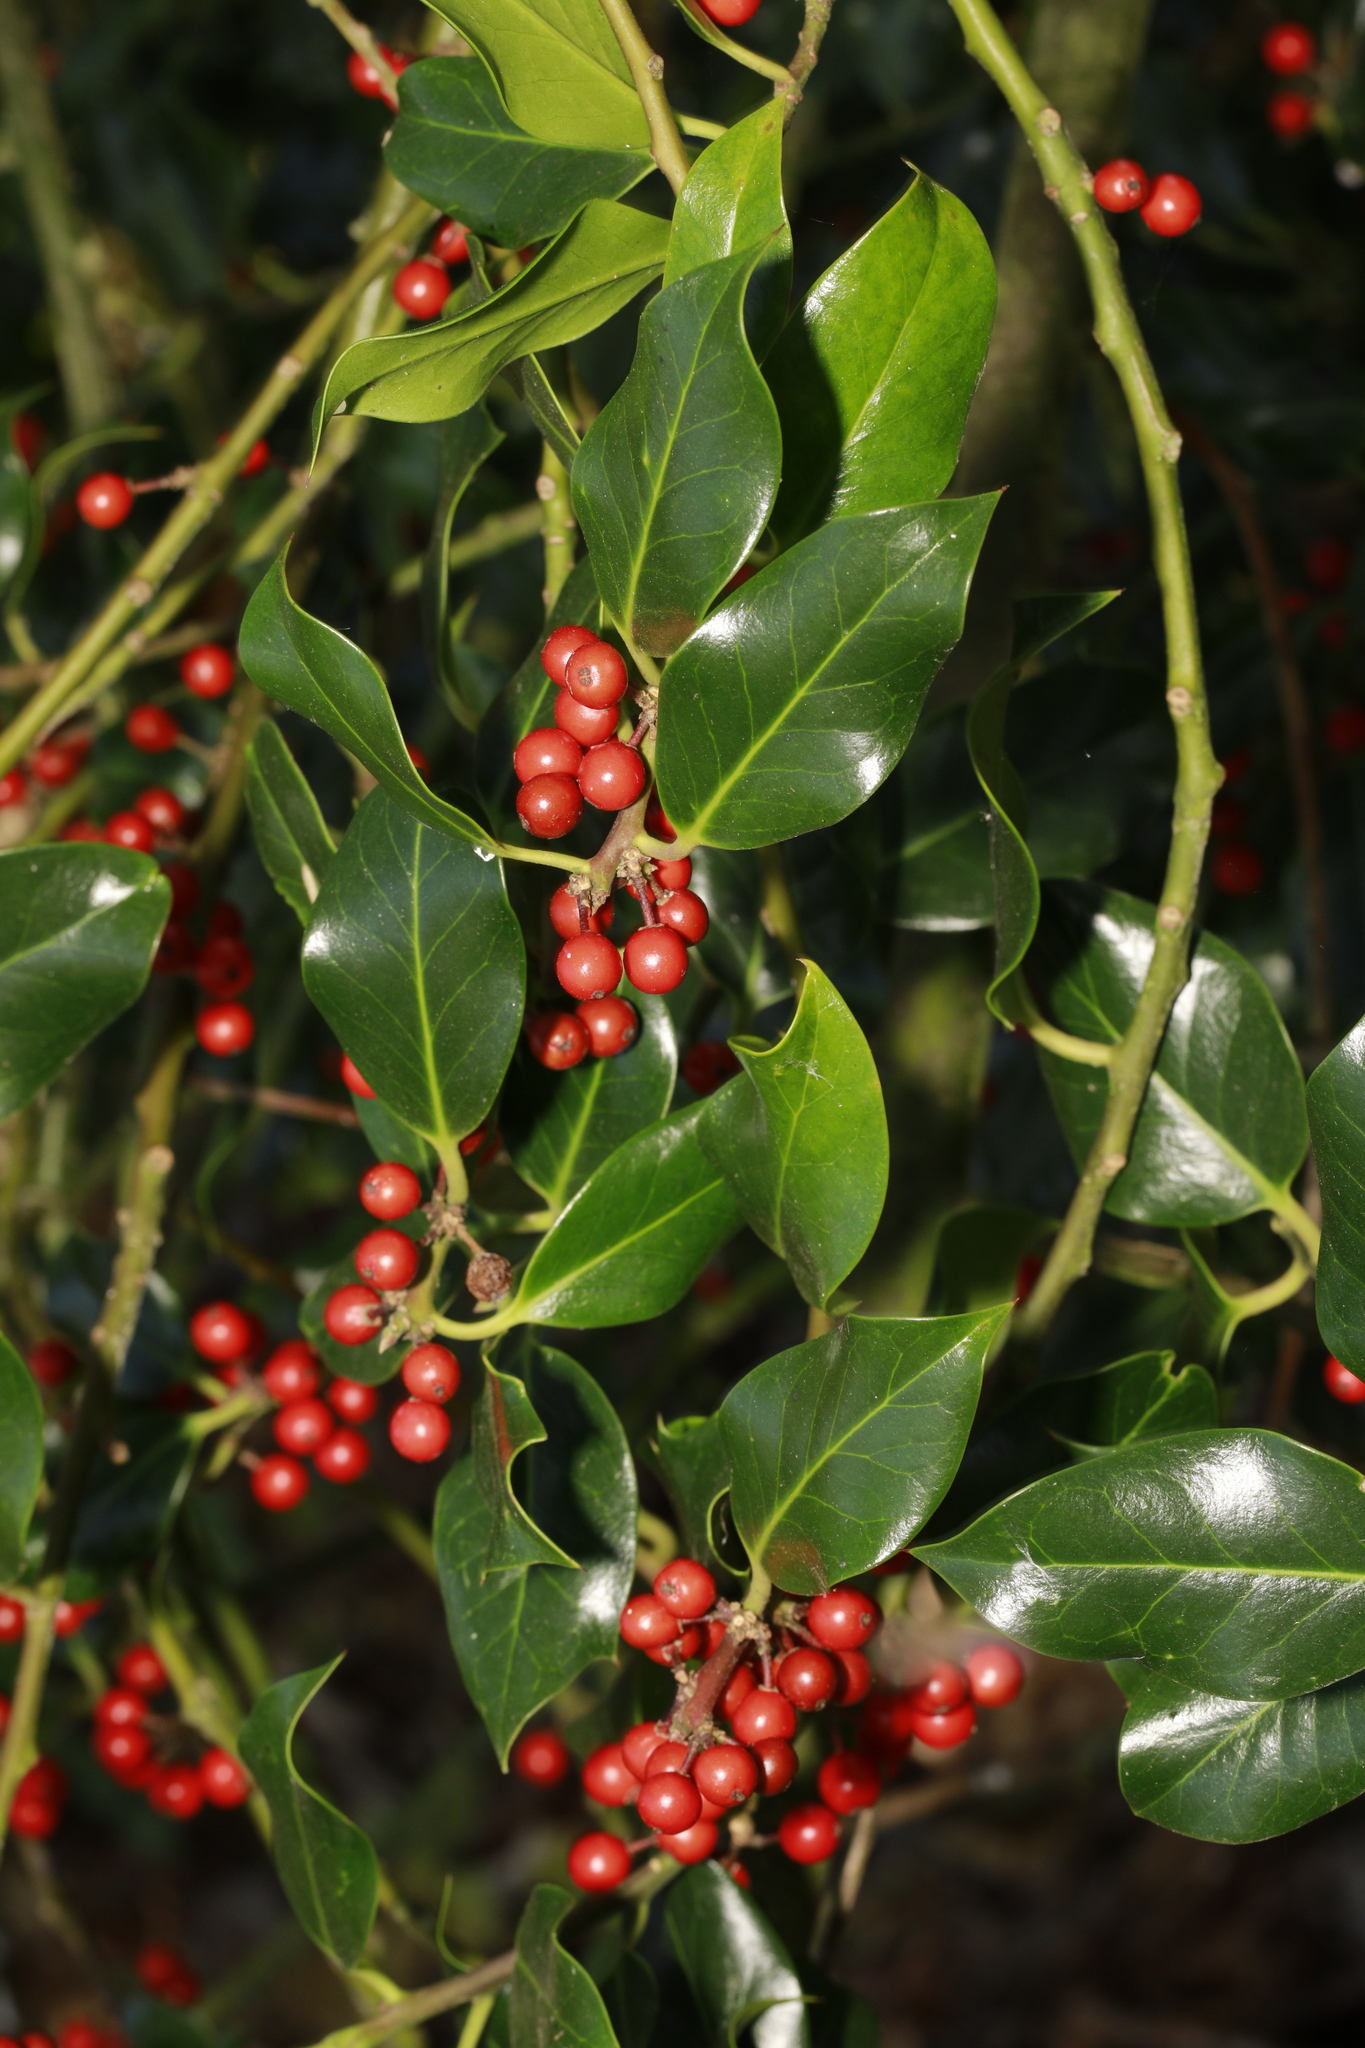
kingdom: Plantae
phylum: Tracheophyta
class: Magnoliopsida
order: Aquifoliales
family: Aquifoliaceae
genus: Ilex
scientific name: Ilex aquifolium
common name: English holly
